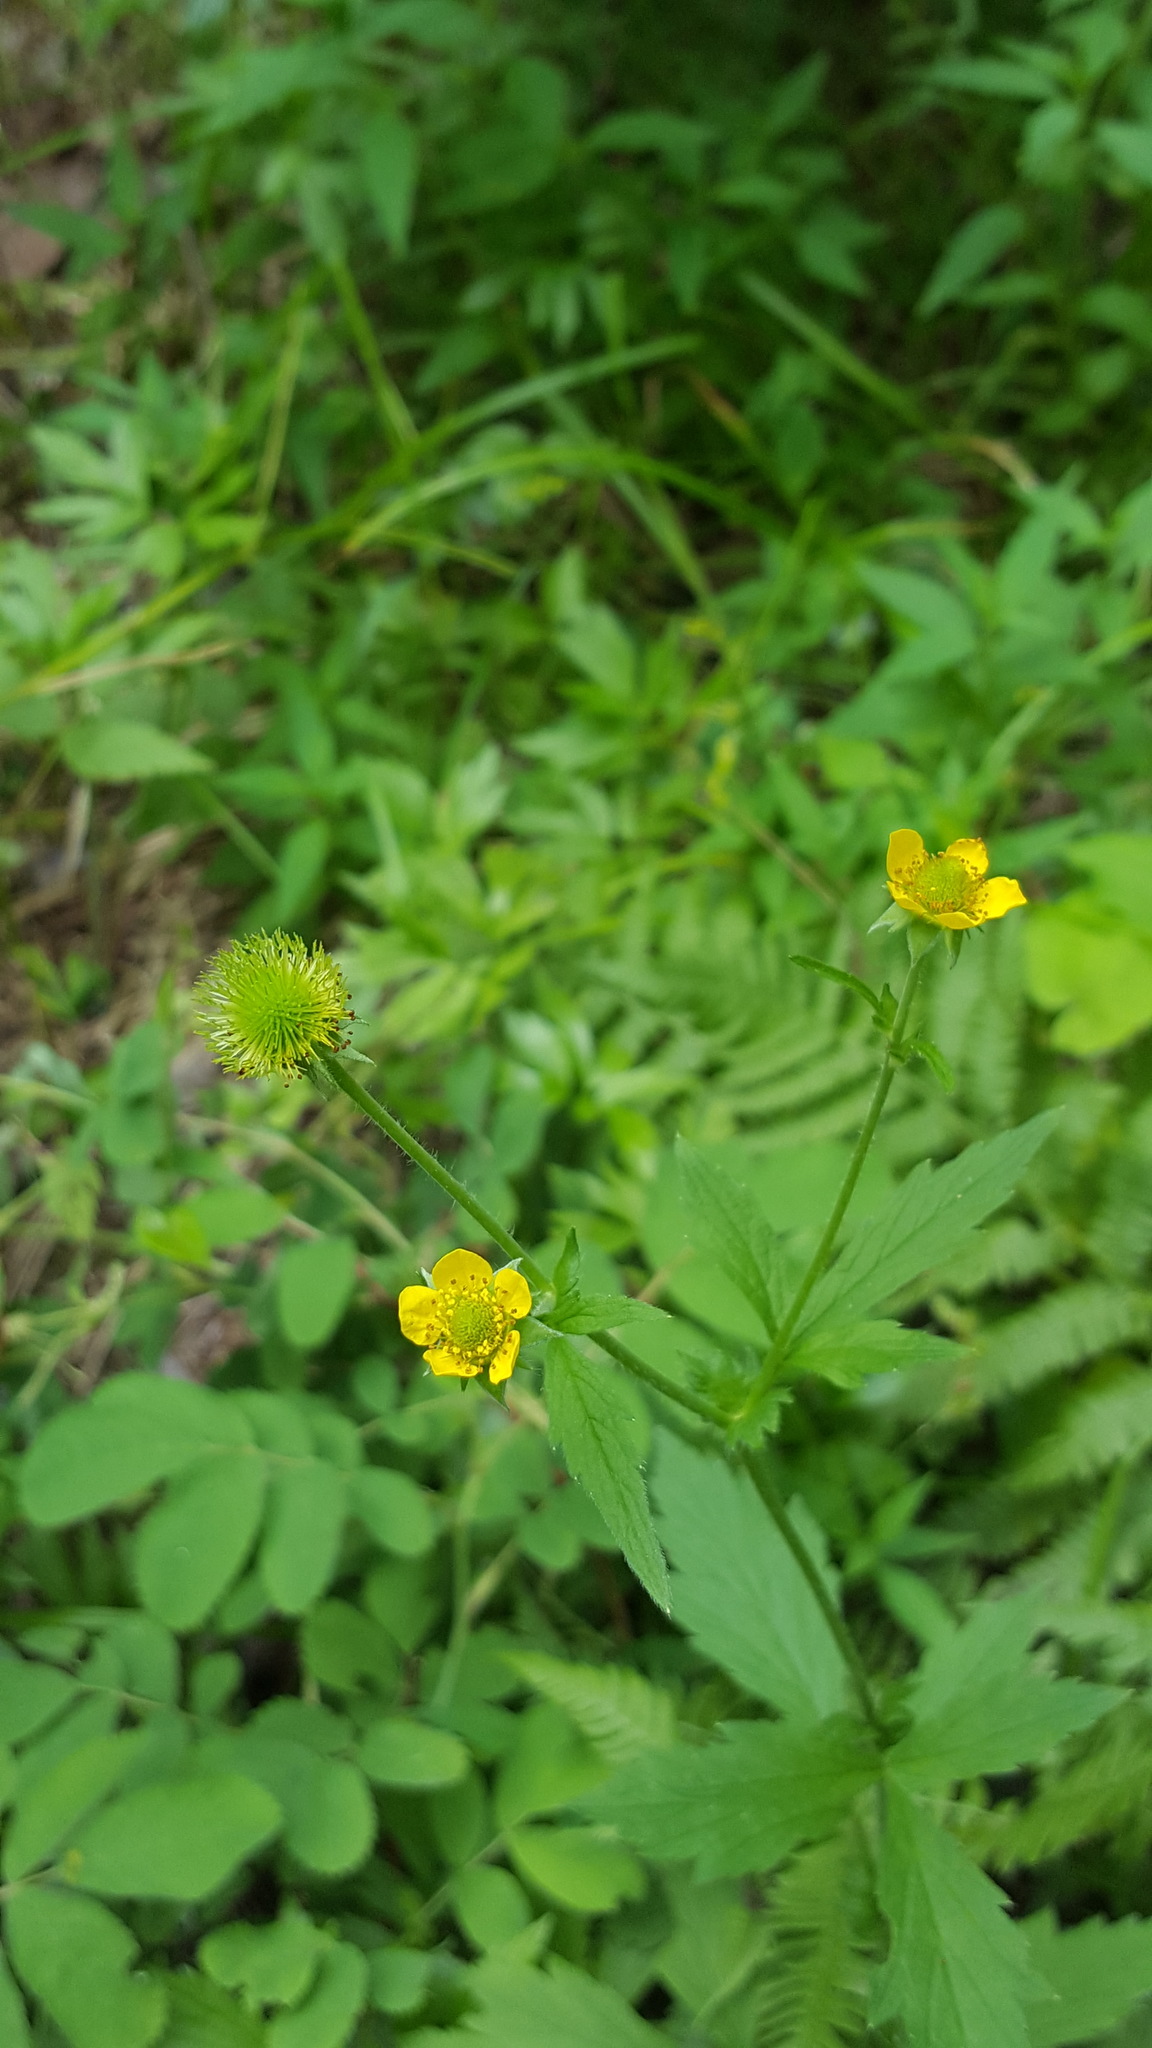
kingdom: Plantae
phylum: Tracheophyta
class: Magnoliopsida
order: Rosales
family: Rosaceae
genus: Geum
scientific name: Geum aleppicum
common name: Yellow avens
